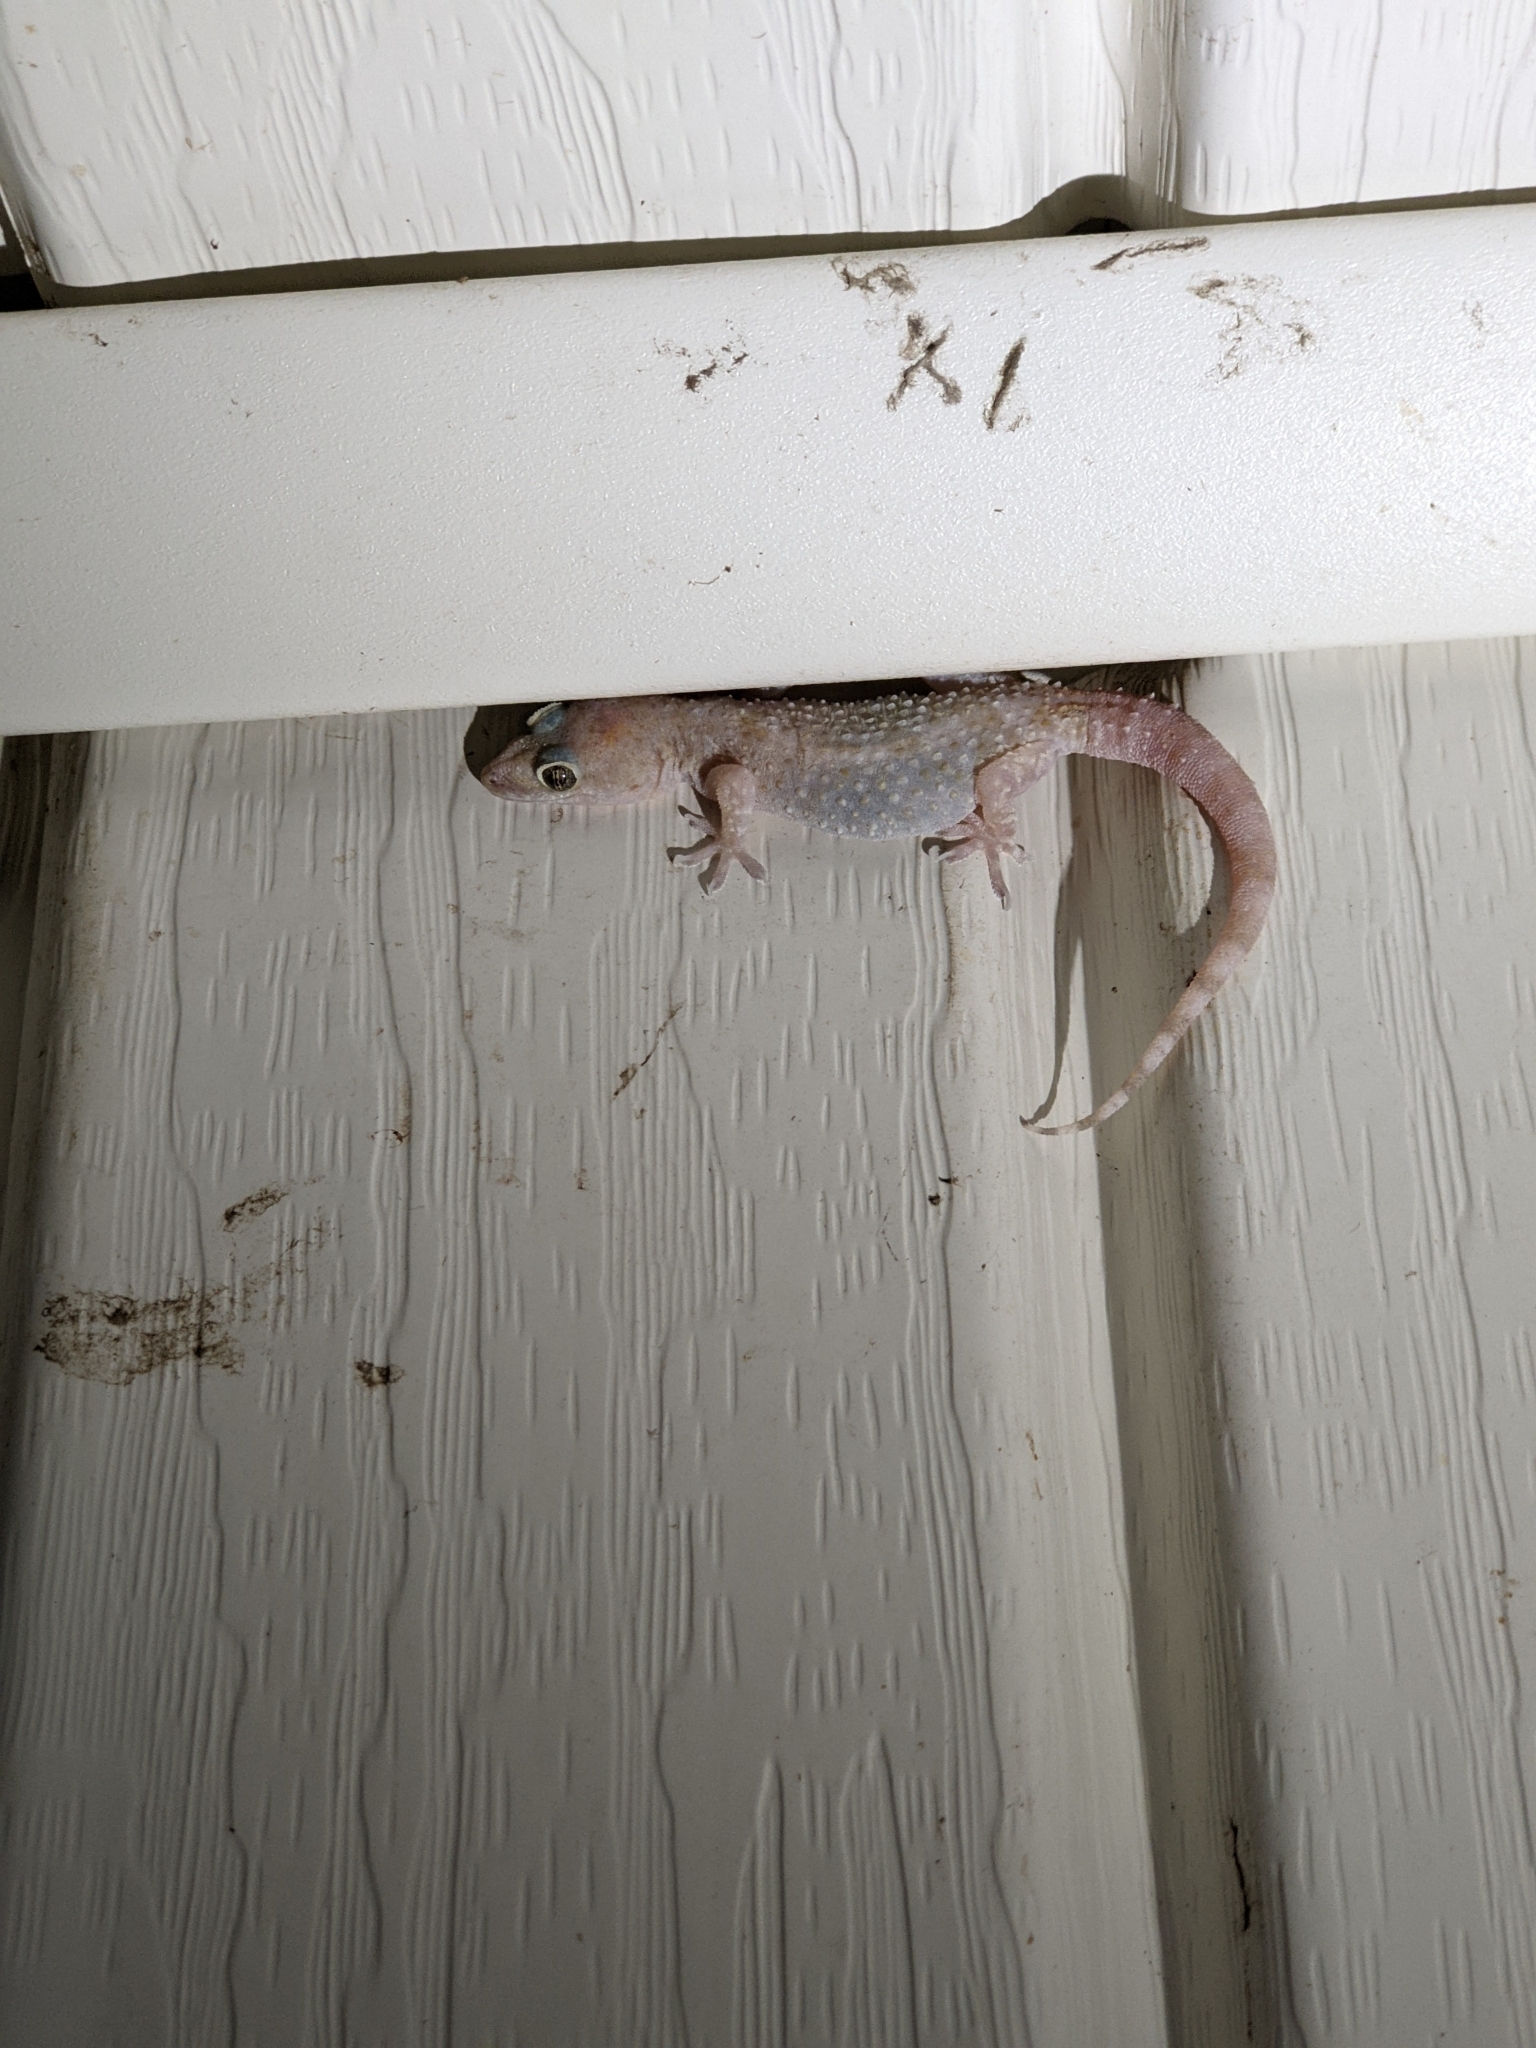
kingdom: Animalia
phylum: Chordata
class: Squamata
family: Gekkonidae
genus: Hemidactylus
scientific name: Hemidactylus turcicus
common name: Turkish gecko
